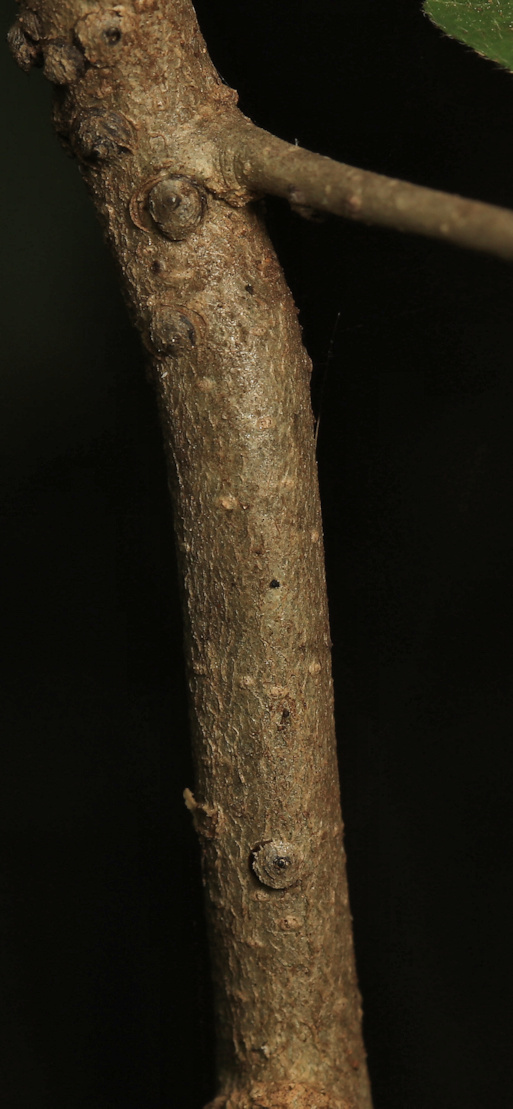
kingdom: Plantae
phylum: Tracheophyta
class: Magnoliopsida
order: Malpighiales
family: Salicaceae
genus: Homalium
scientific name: Homalium dentatum
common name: Brown ironwood
